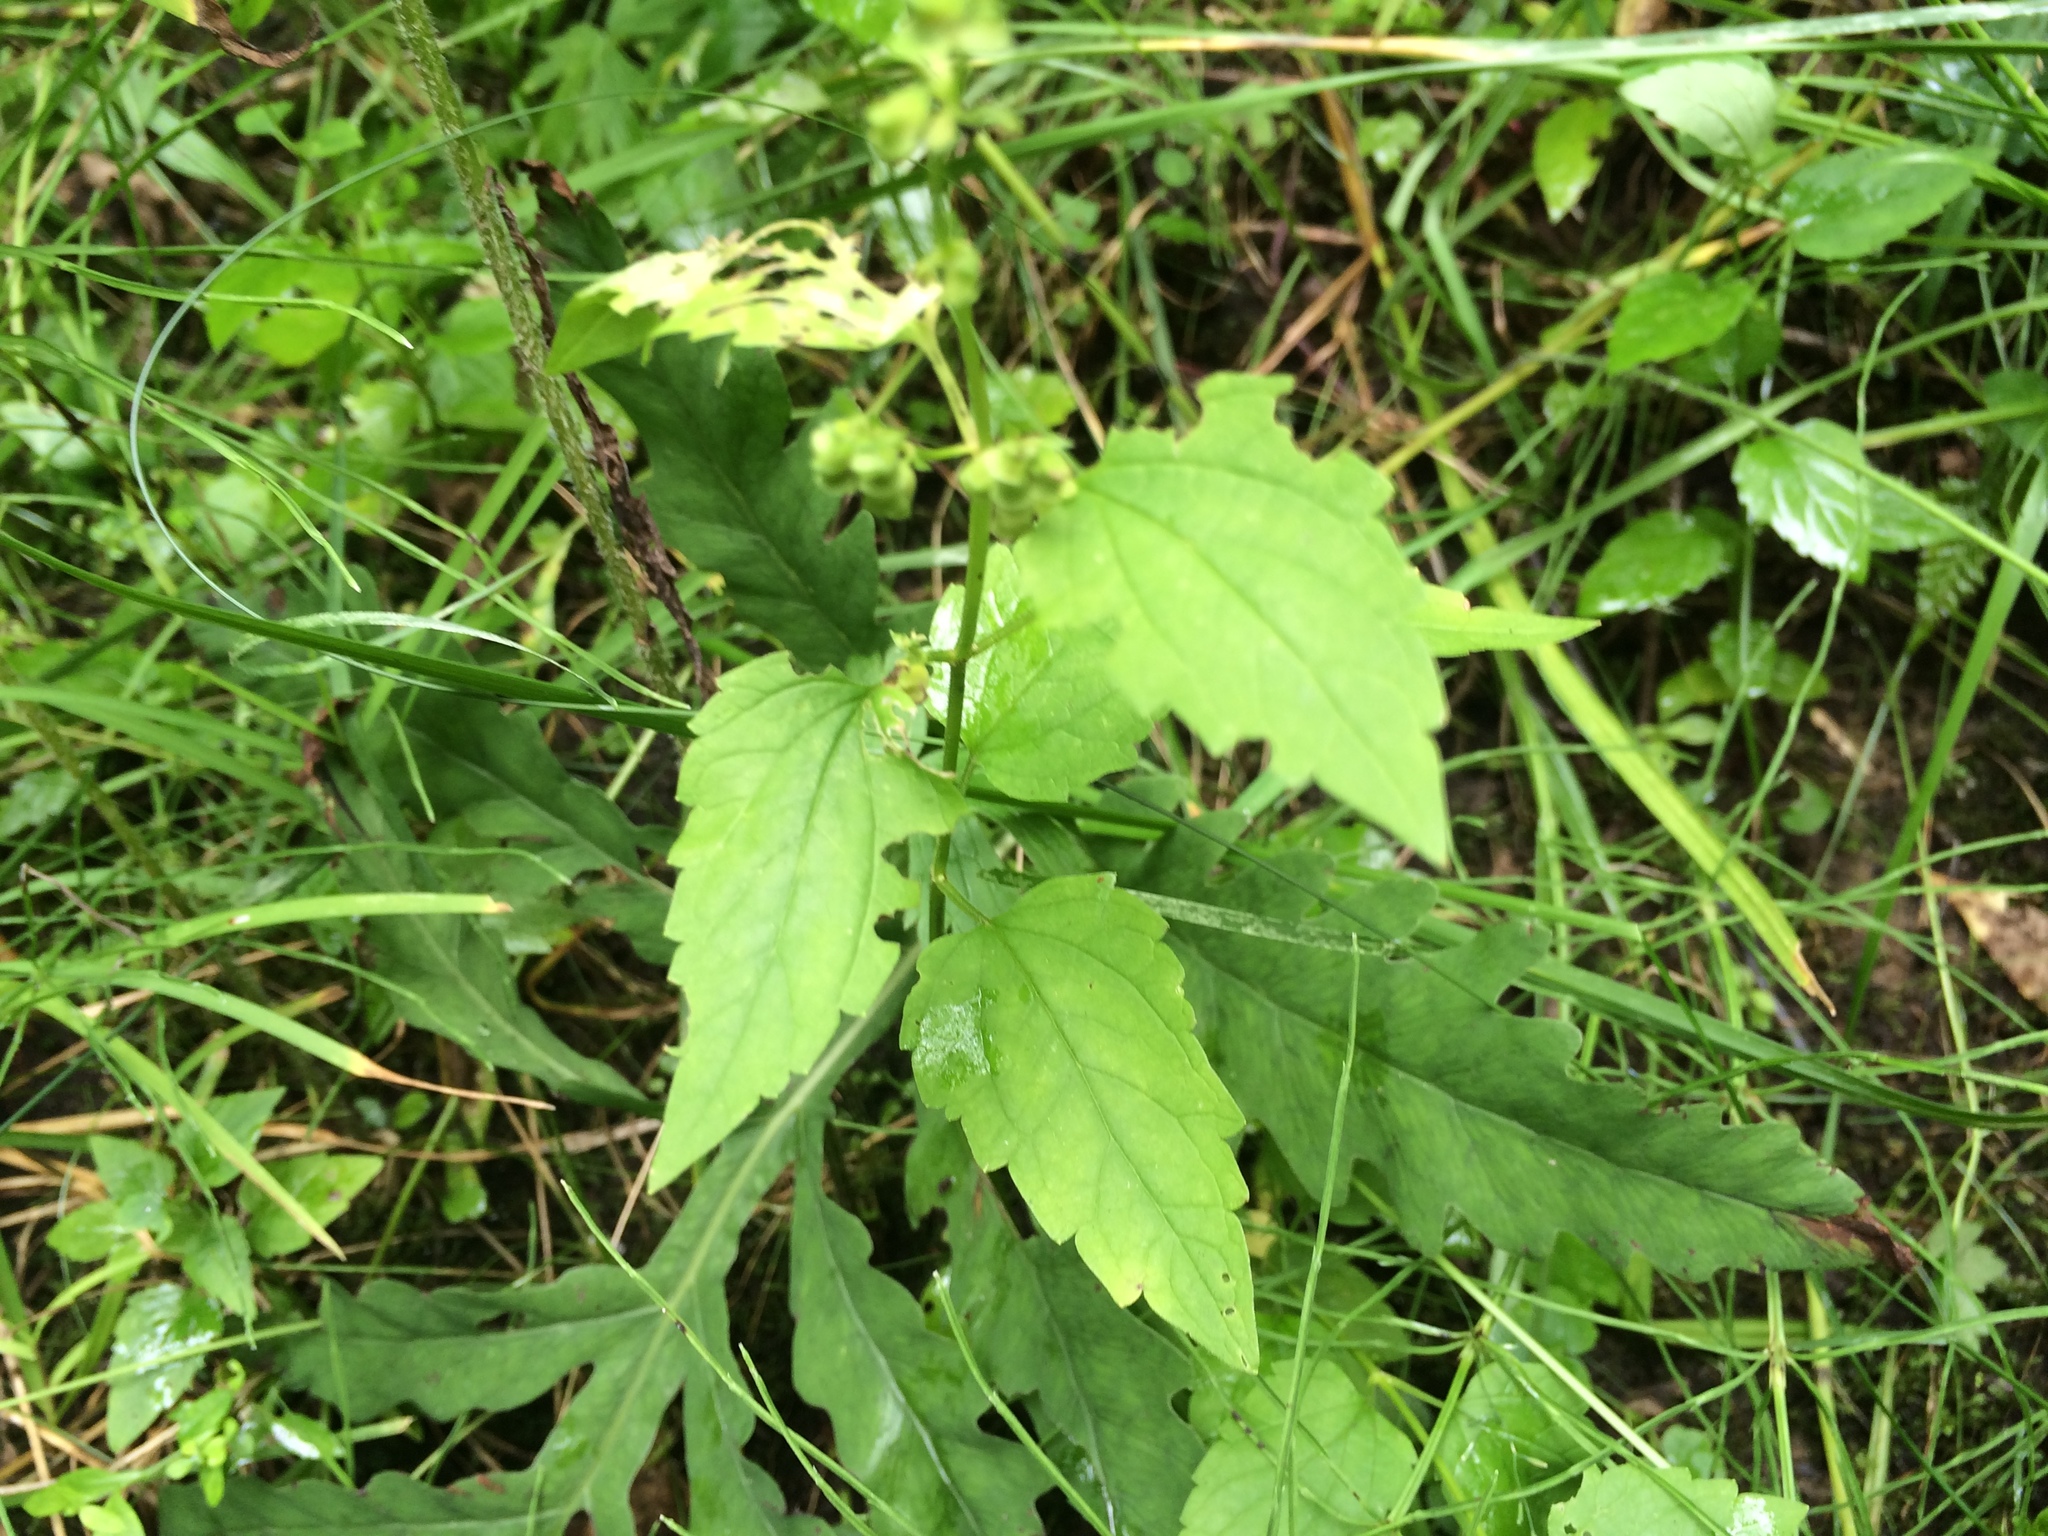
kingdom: Plantae
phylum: Tracheophyta
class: Magnoliopsida
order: Lamiales
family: Lamiaceae
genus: Scutellaria
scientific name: Scutellaria lateriflora
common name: Blue skullcap
